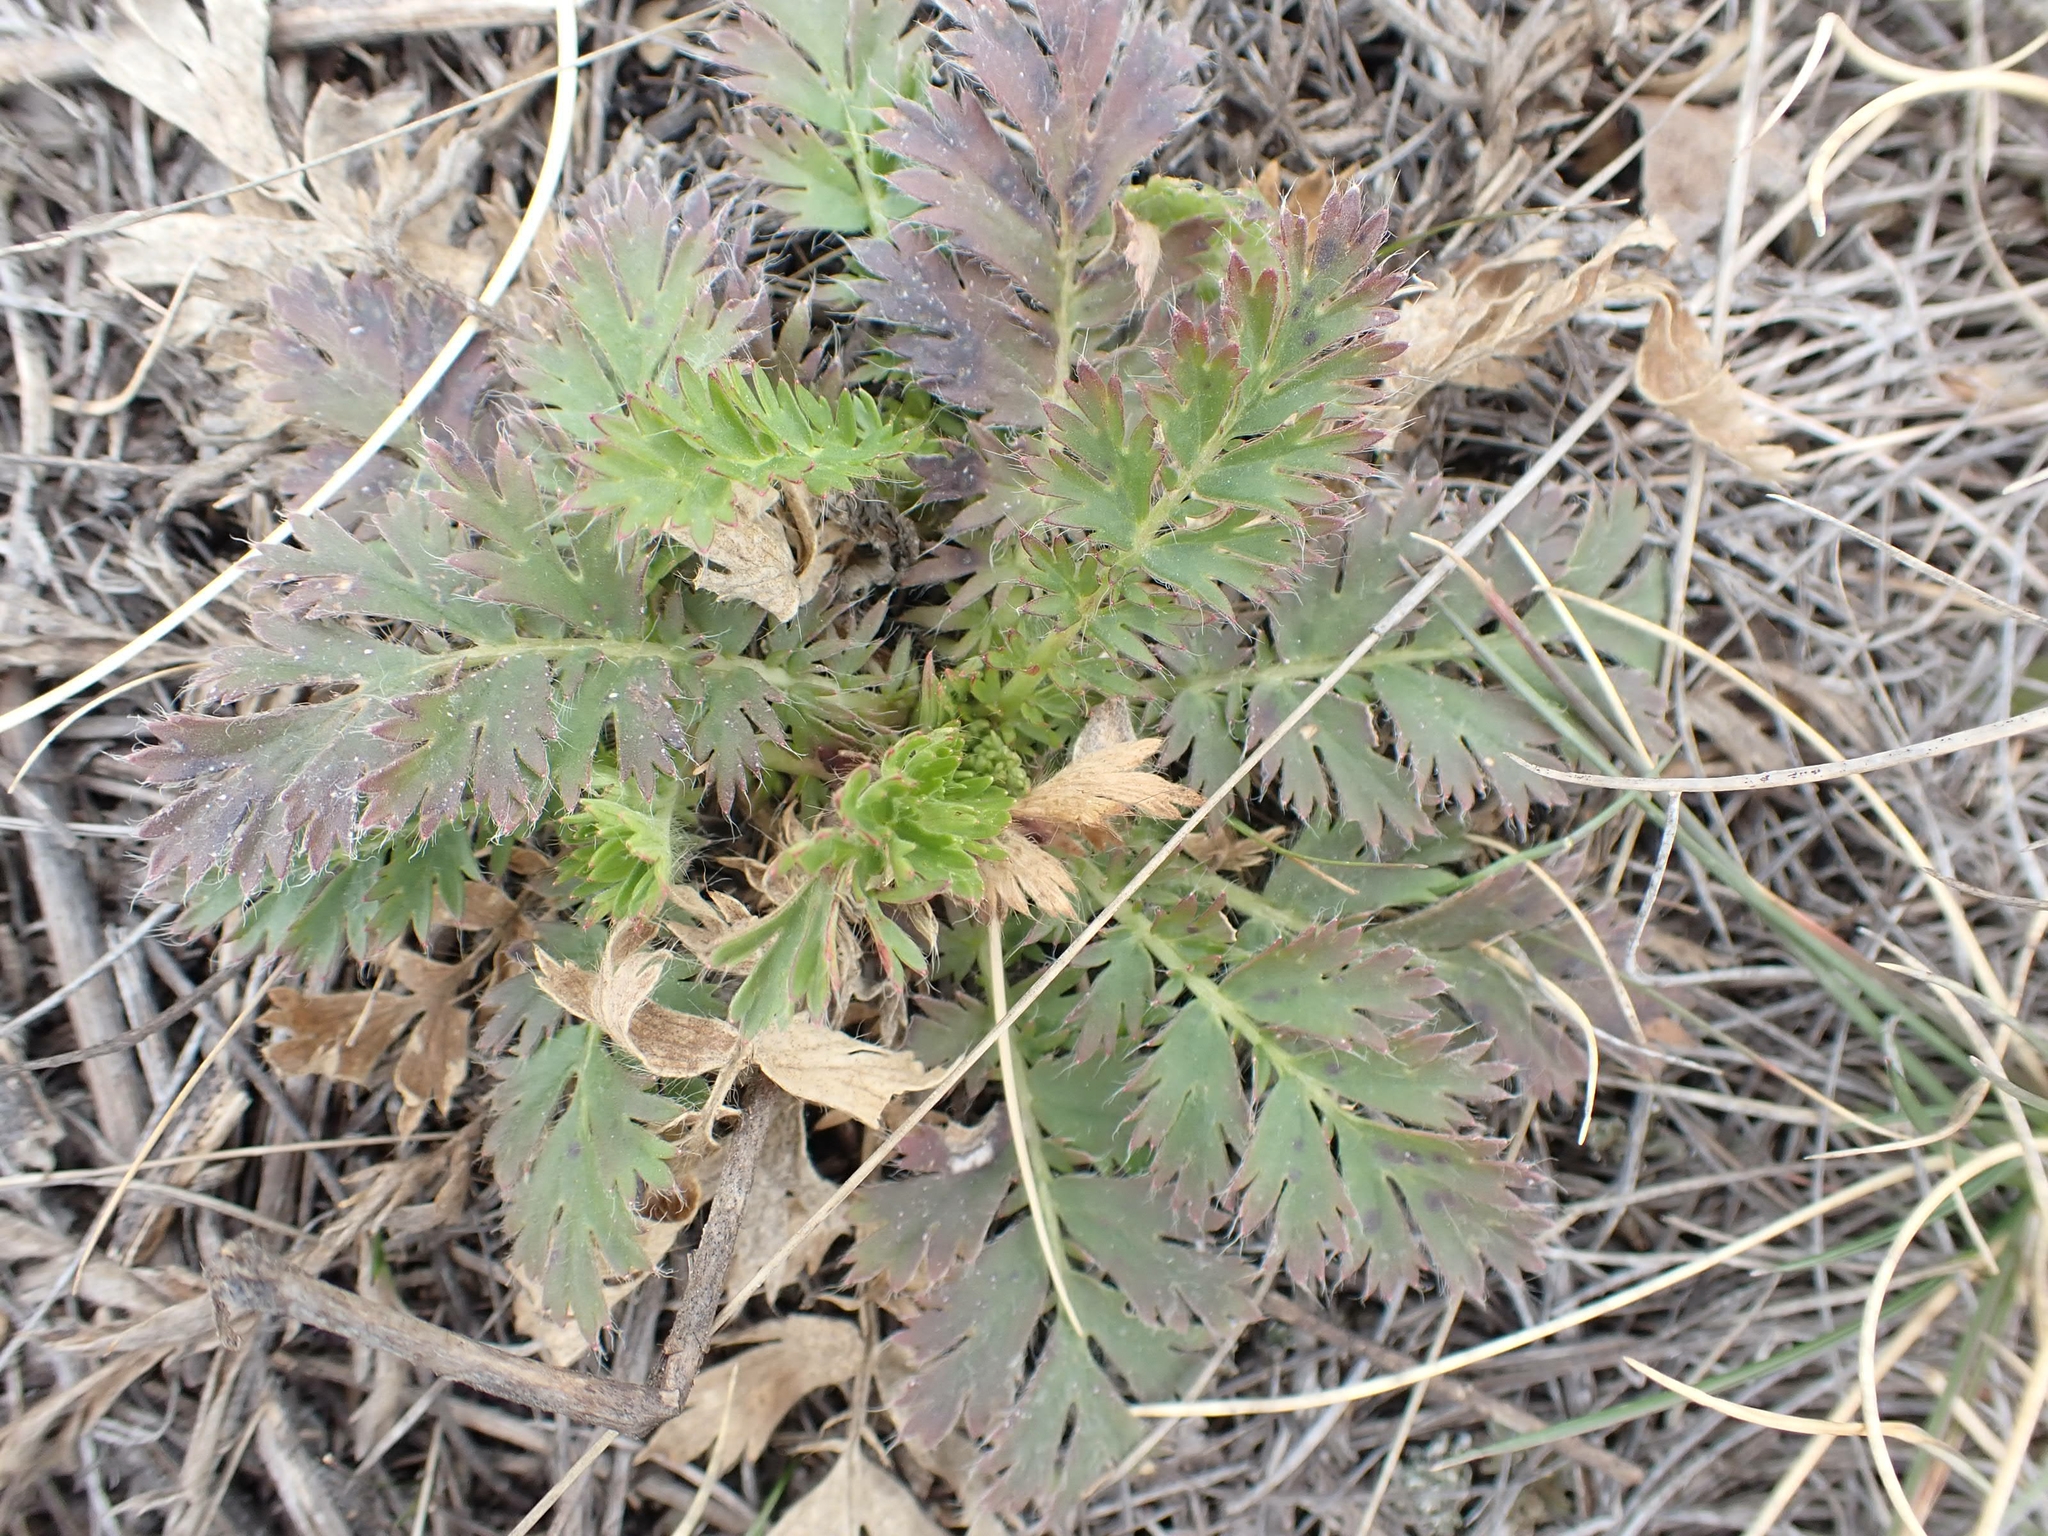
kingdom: Plantae
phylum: Tracheophyta
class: Magnoliopsida
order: Rosales
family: Rosaceae
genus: Geum
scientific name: Geum triflorum
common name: Old man's whiskers
